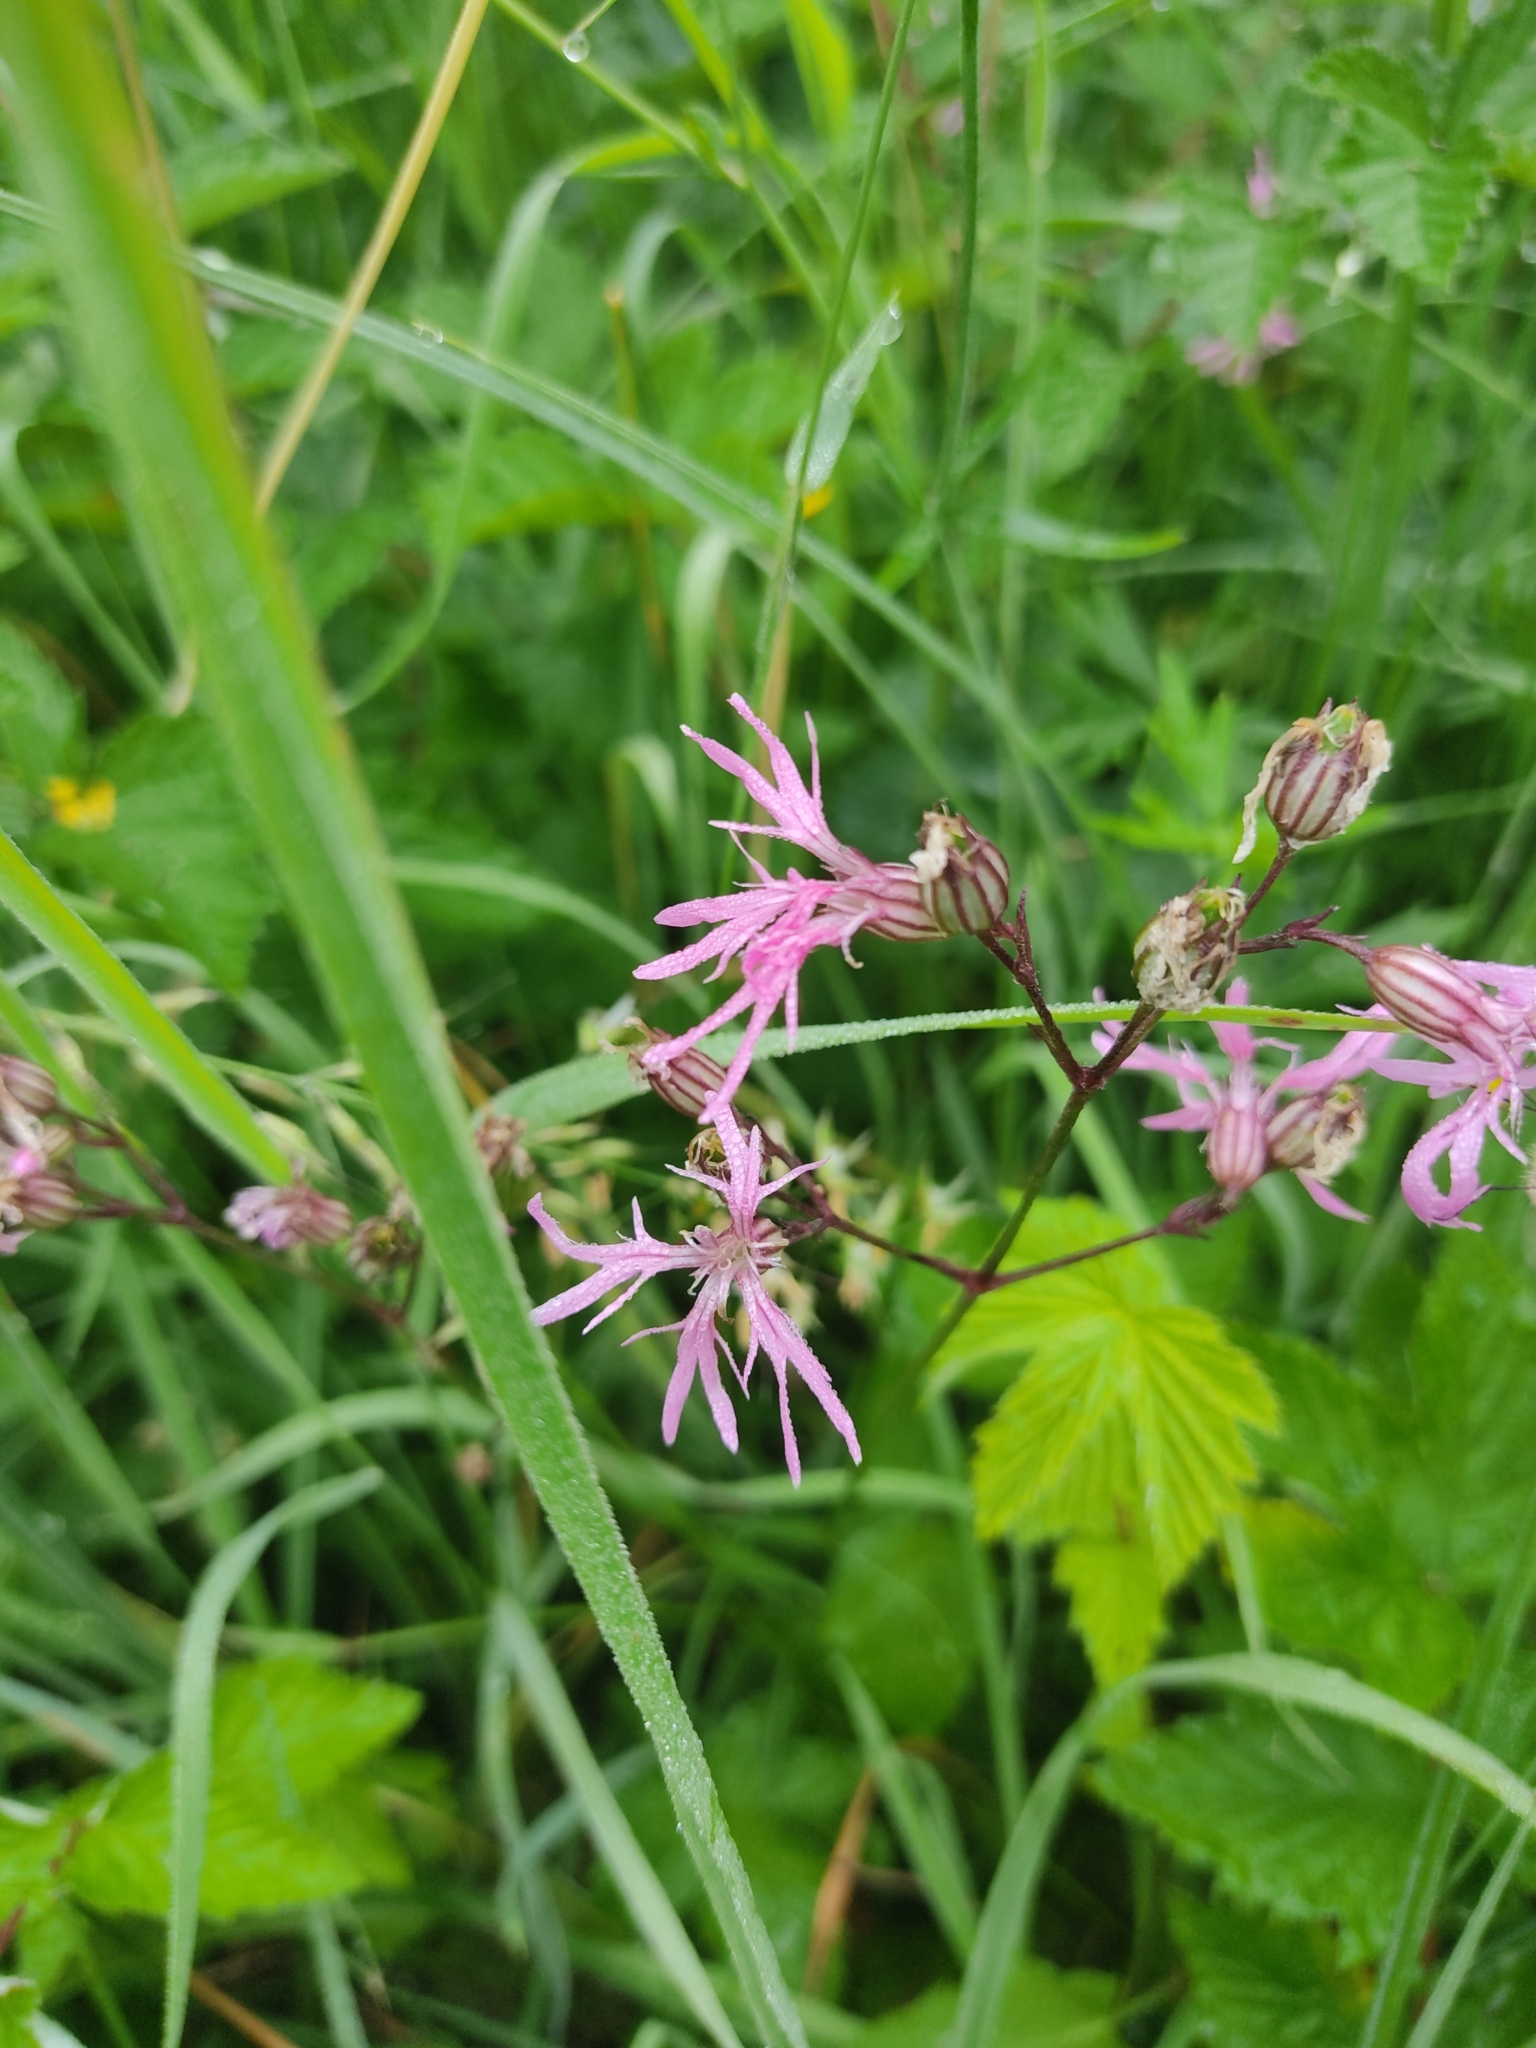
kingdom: Plantae
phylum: Tracheophyta
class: Magnoliopsida
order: Caryophyllales
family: Caryophyllaceae
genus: Silene
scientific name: Silene flos-cuculi
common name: Ragged-robin
